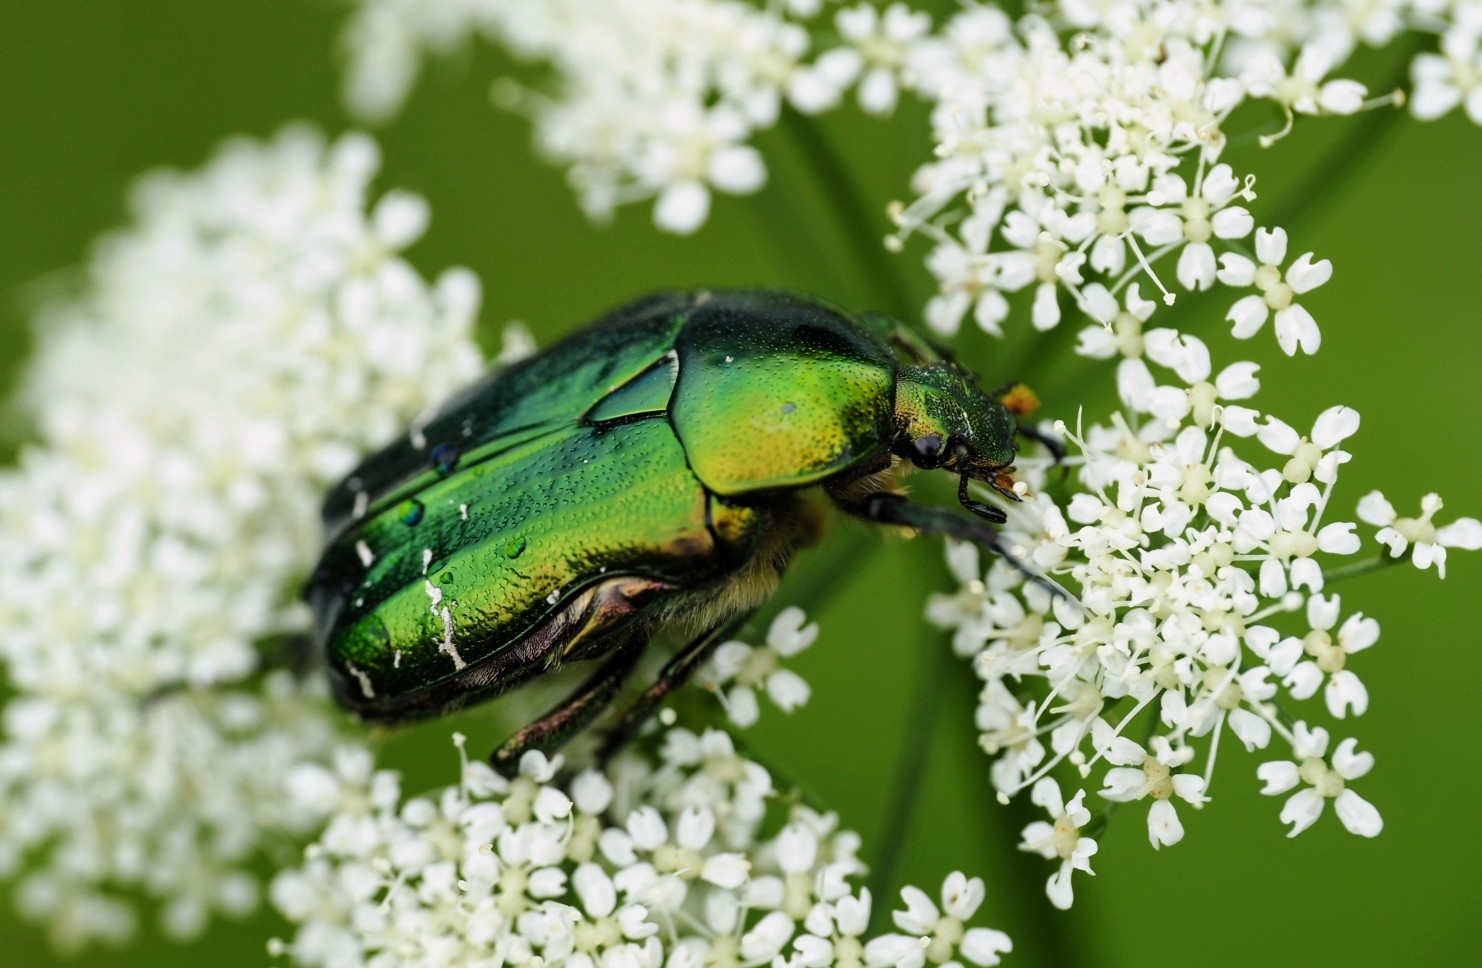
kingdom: Animalia
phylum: Arthropoda
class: Insecta
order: Coleoptera
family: Scarabaeidae
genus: Cetonia
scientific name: Cetonia aurata
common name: Rose chafer
